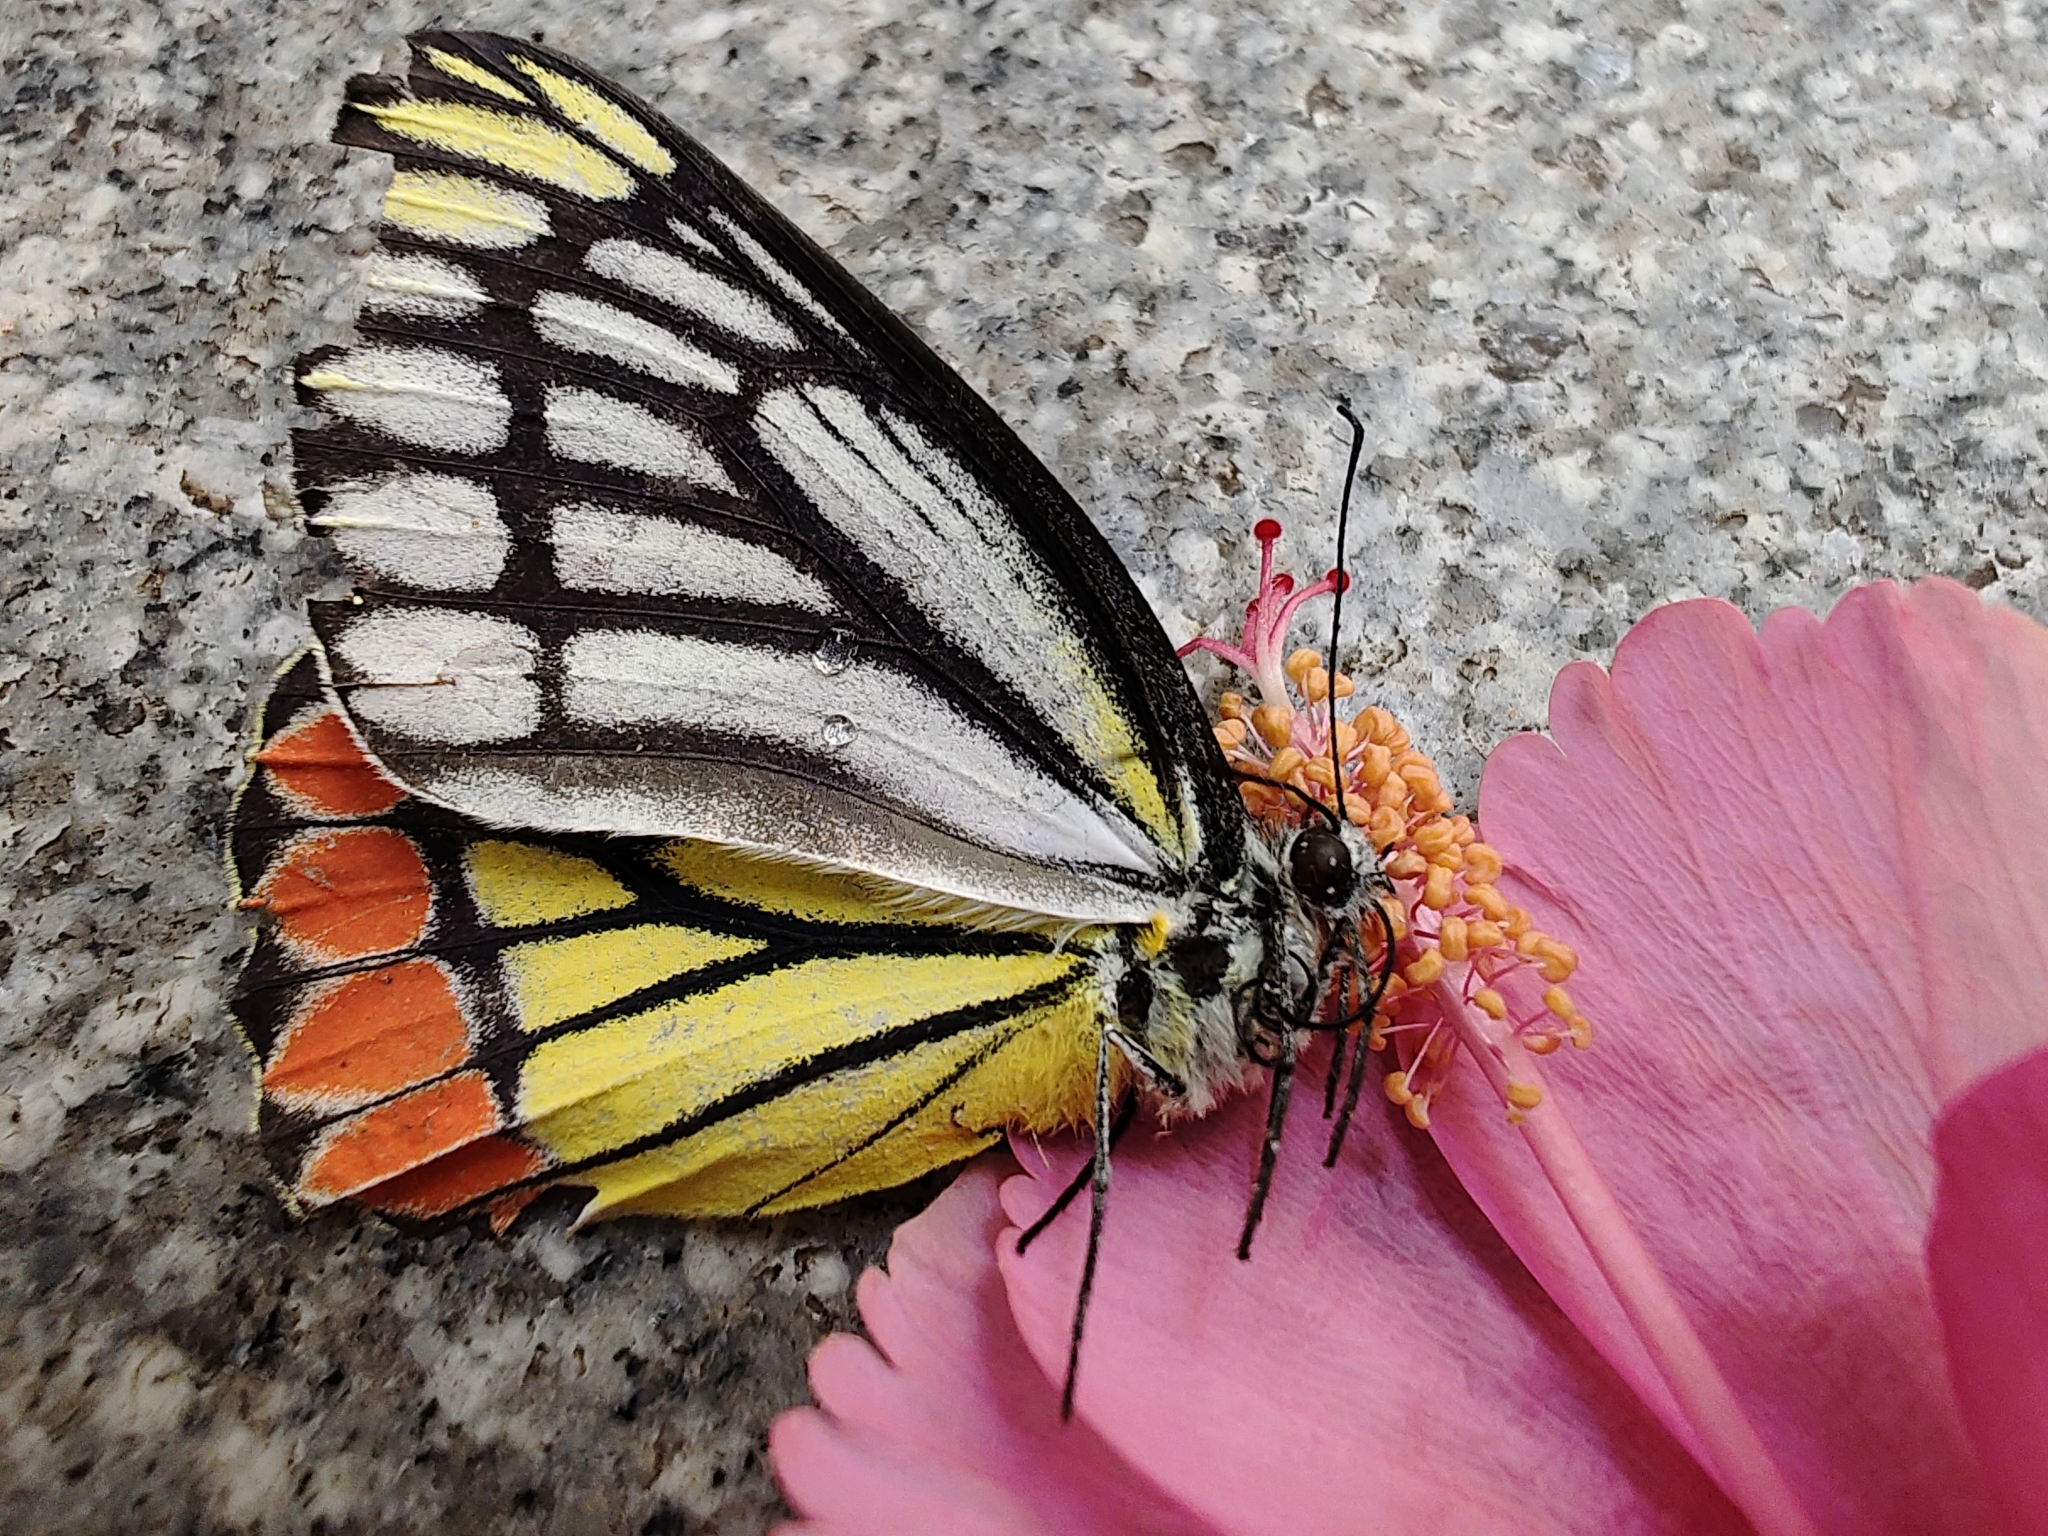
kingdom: Animalia
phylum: Arthropoda
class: Insecta
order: Lepidoptera
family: Pieridae
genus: Delias
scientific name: Delias eucharis
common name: Common jezebel
